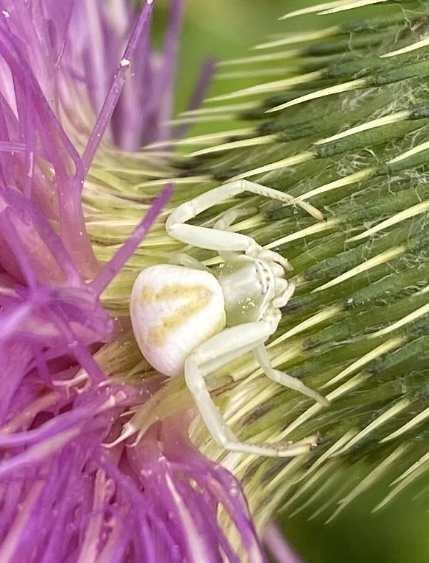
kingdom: Animalia
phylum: Arthropoda
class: Arachnida
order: Araneae
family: Thomisidae
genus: Misumenoides
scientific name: Misumenoides formosipes
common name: White-banded crab spider
